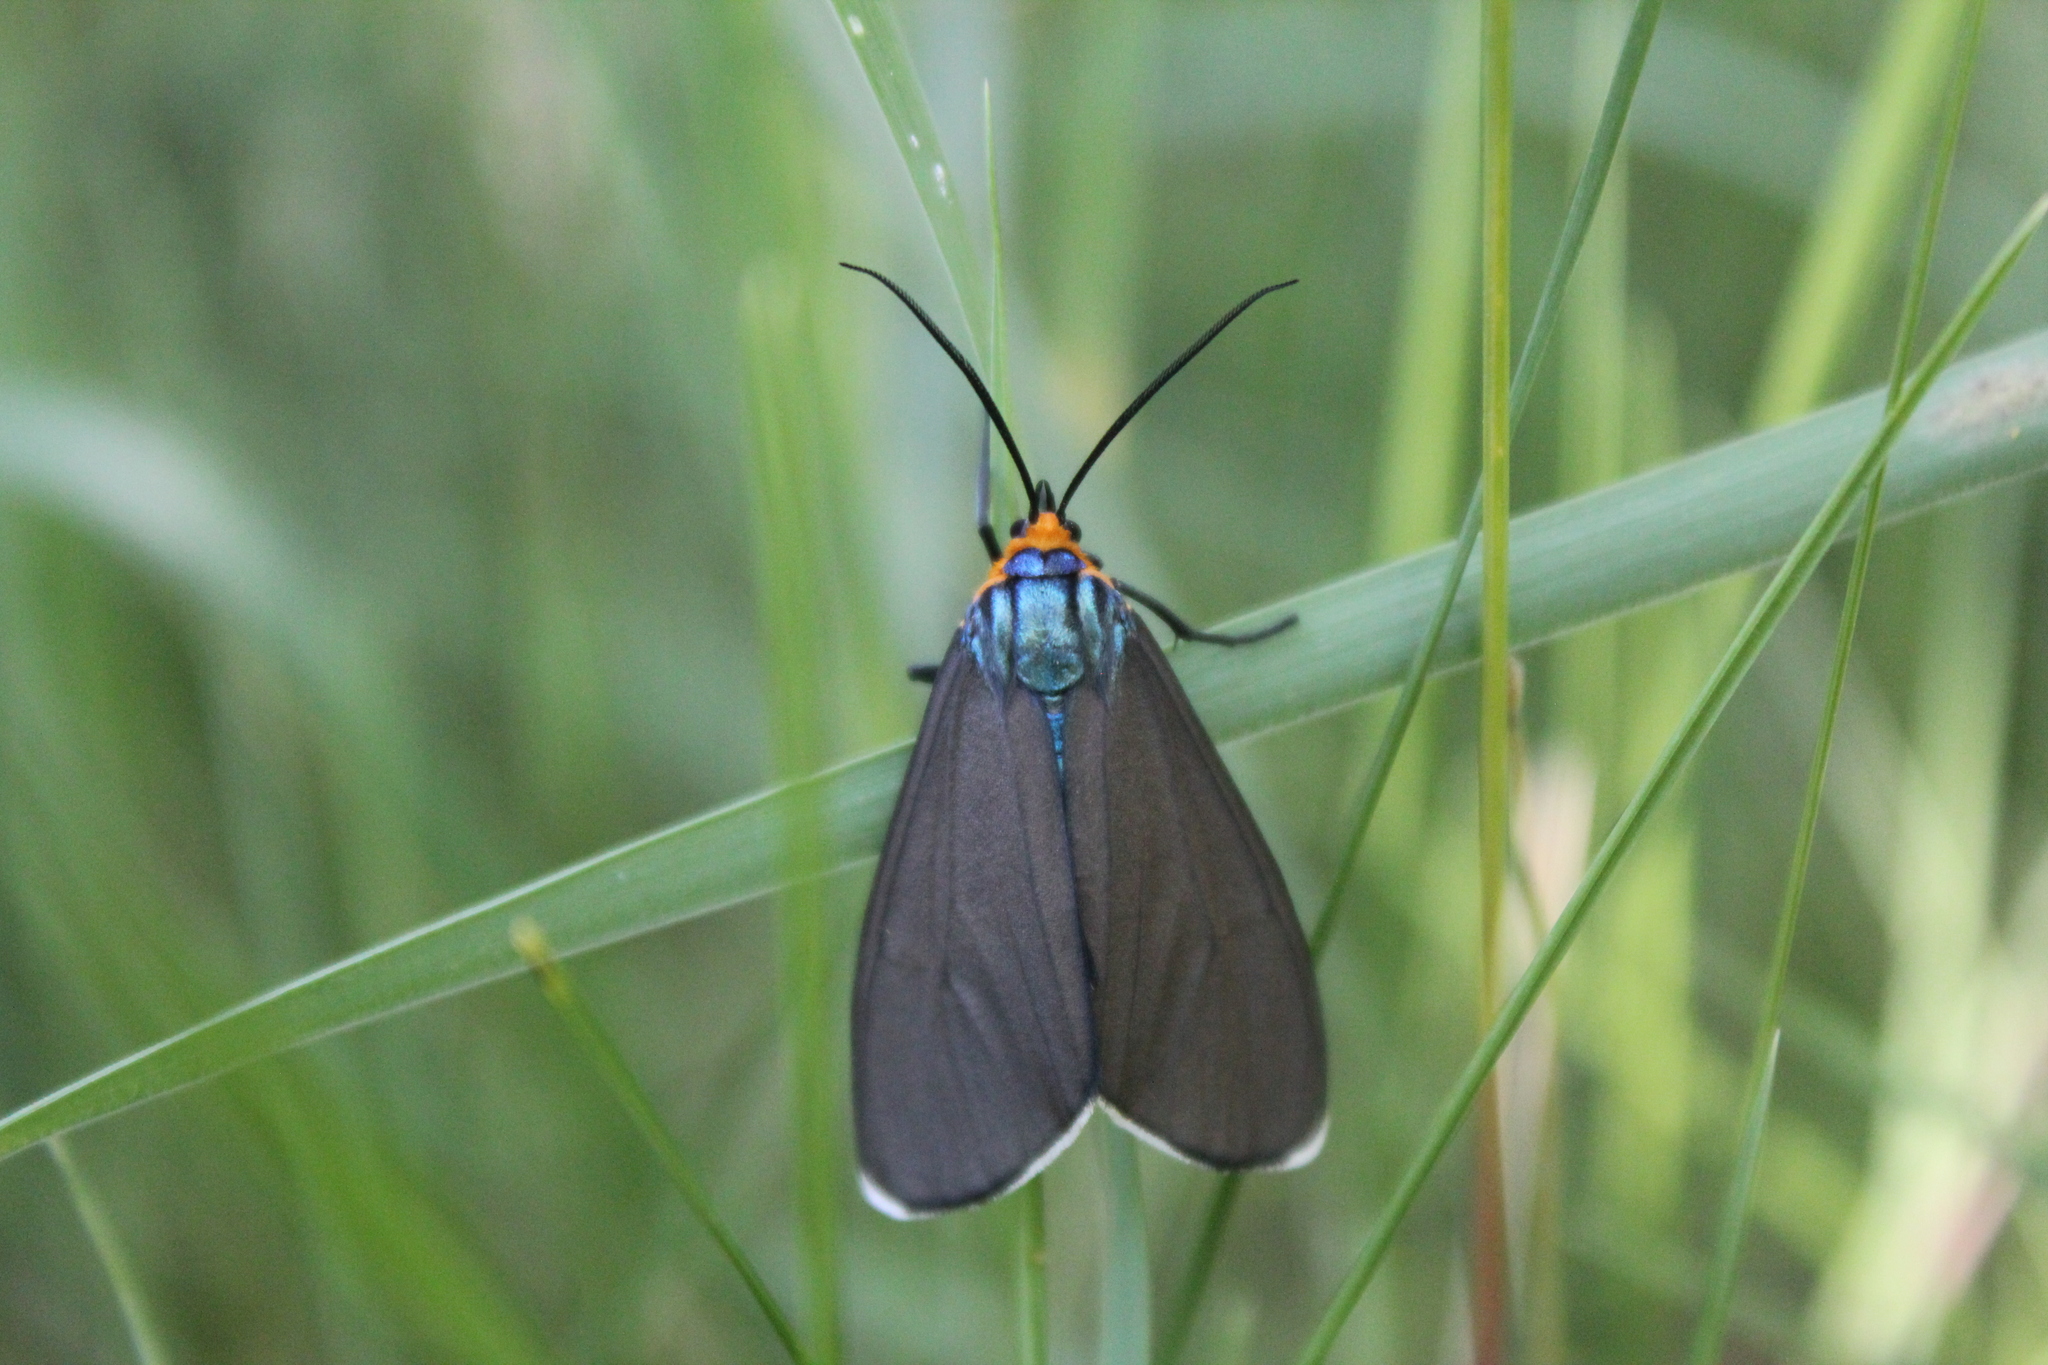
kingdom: Animalia
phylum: Arthropoda
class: Insecta
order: Lepidoptera
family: Erebidae
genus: Ctenucha
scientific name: Ctenucha virginica
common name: Virginia ctenucha moth
